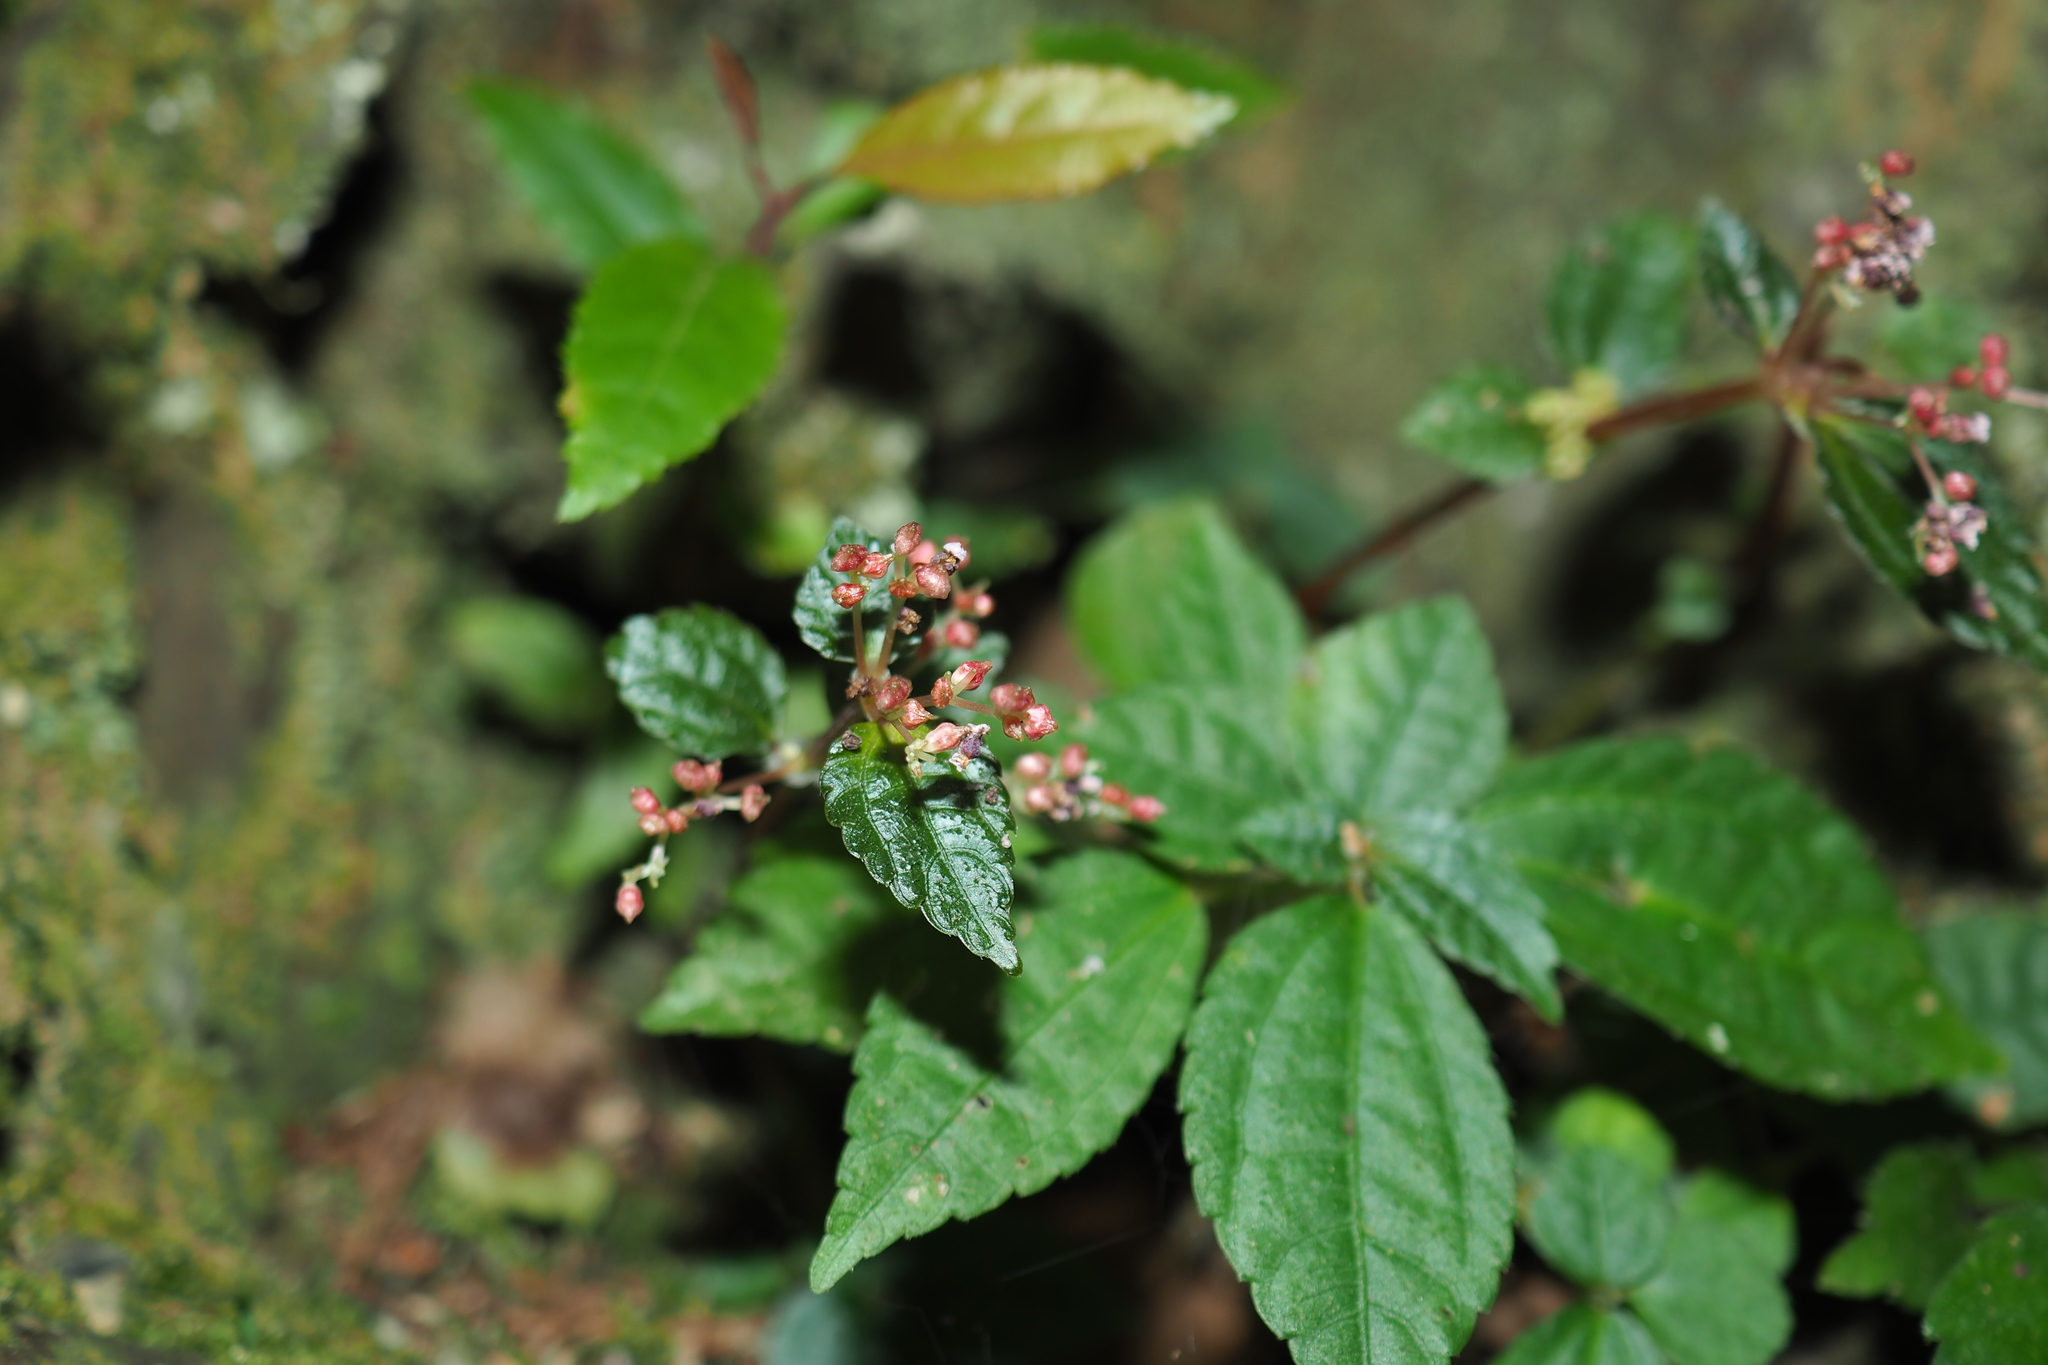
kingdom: Plantae
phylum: Tracheophyta
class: Magnoliopsida
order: Rosales
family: Urticaceae
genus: Pilea
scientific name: Pilea aquarum
